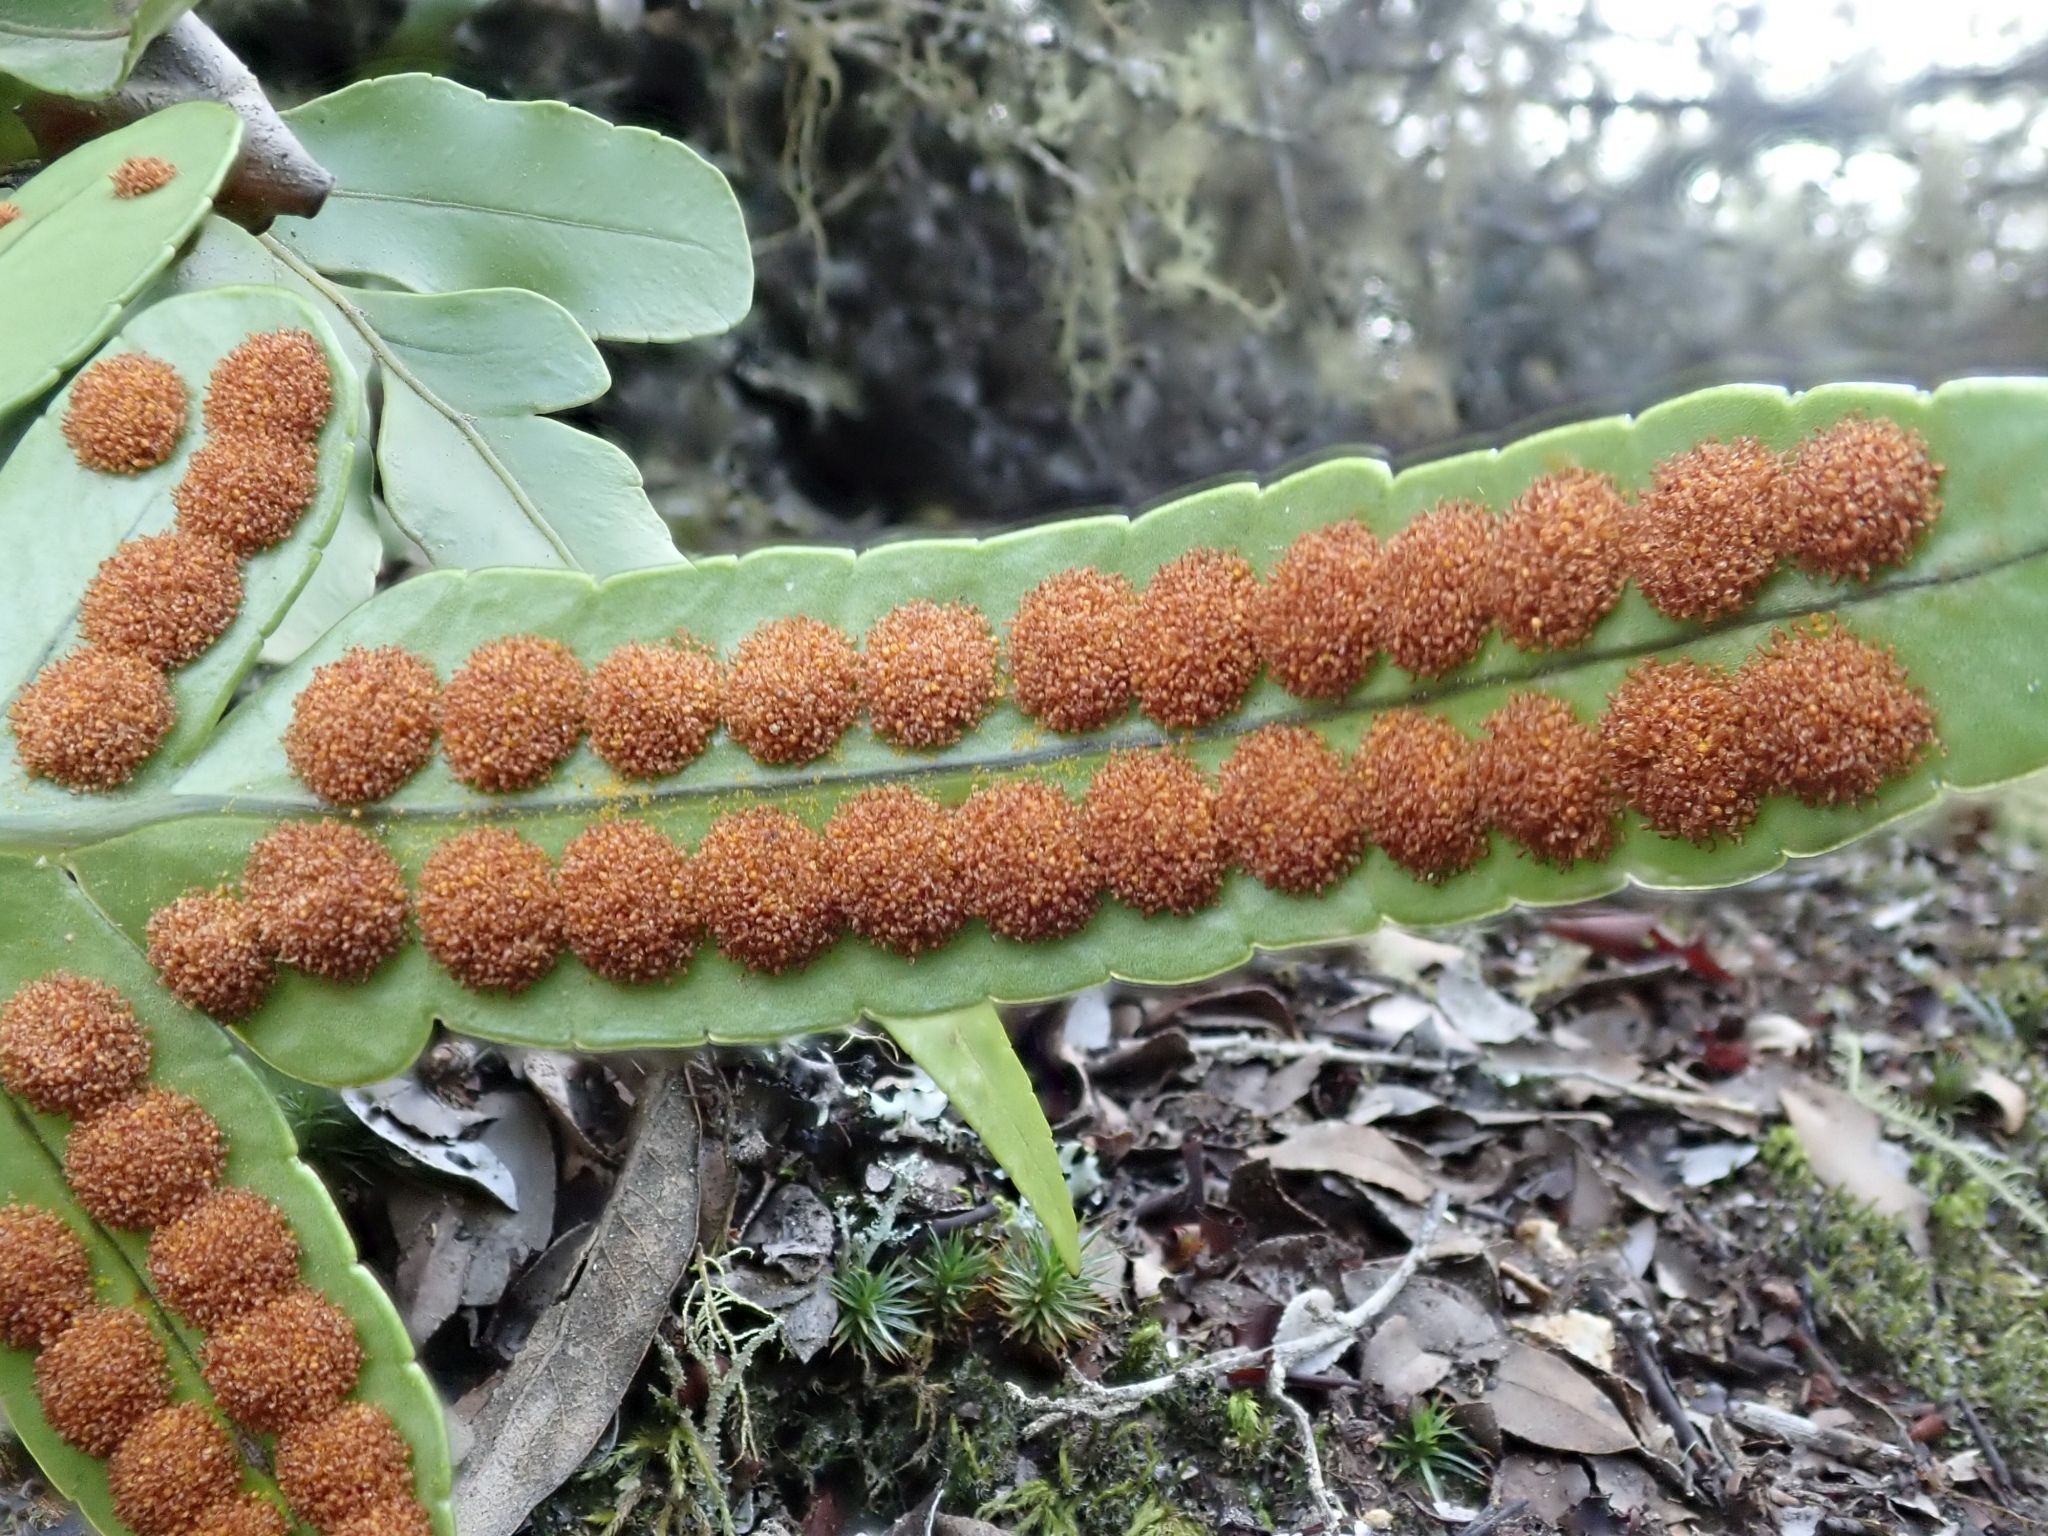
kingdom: Plantae
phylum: Tracheophyta
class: Polypodiopsida
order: Polypodiales
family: Polypodiaceae
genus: Polypodium
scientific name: Polypodium scouleri
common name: Scouler's polypody
